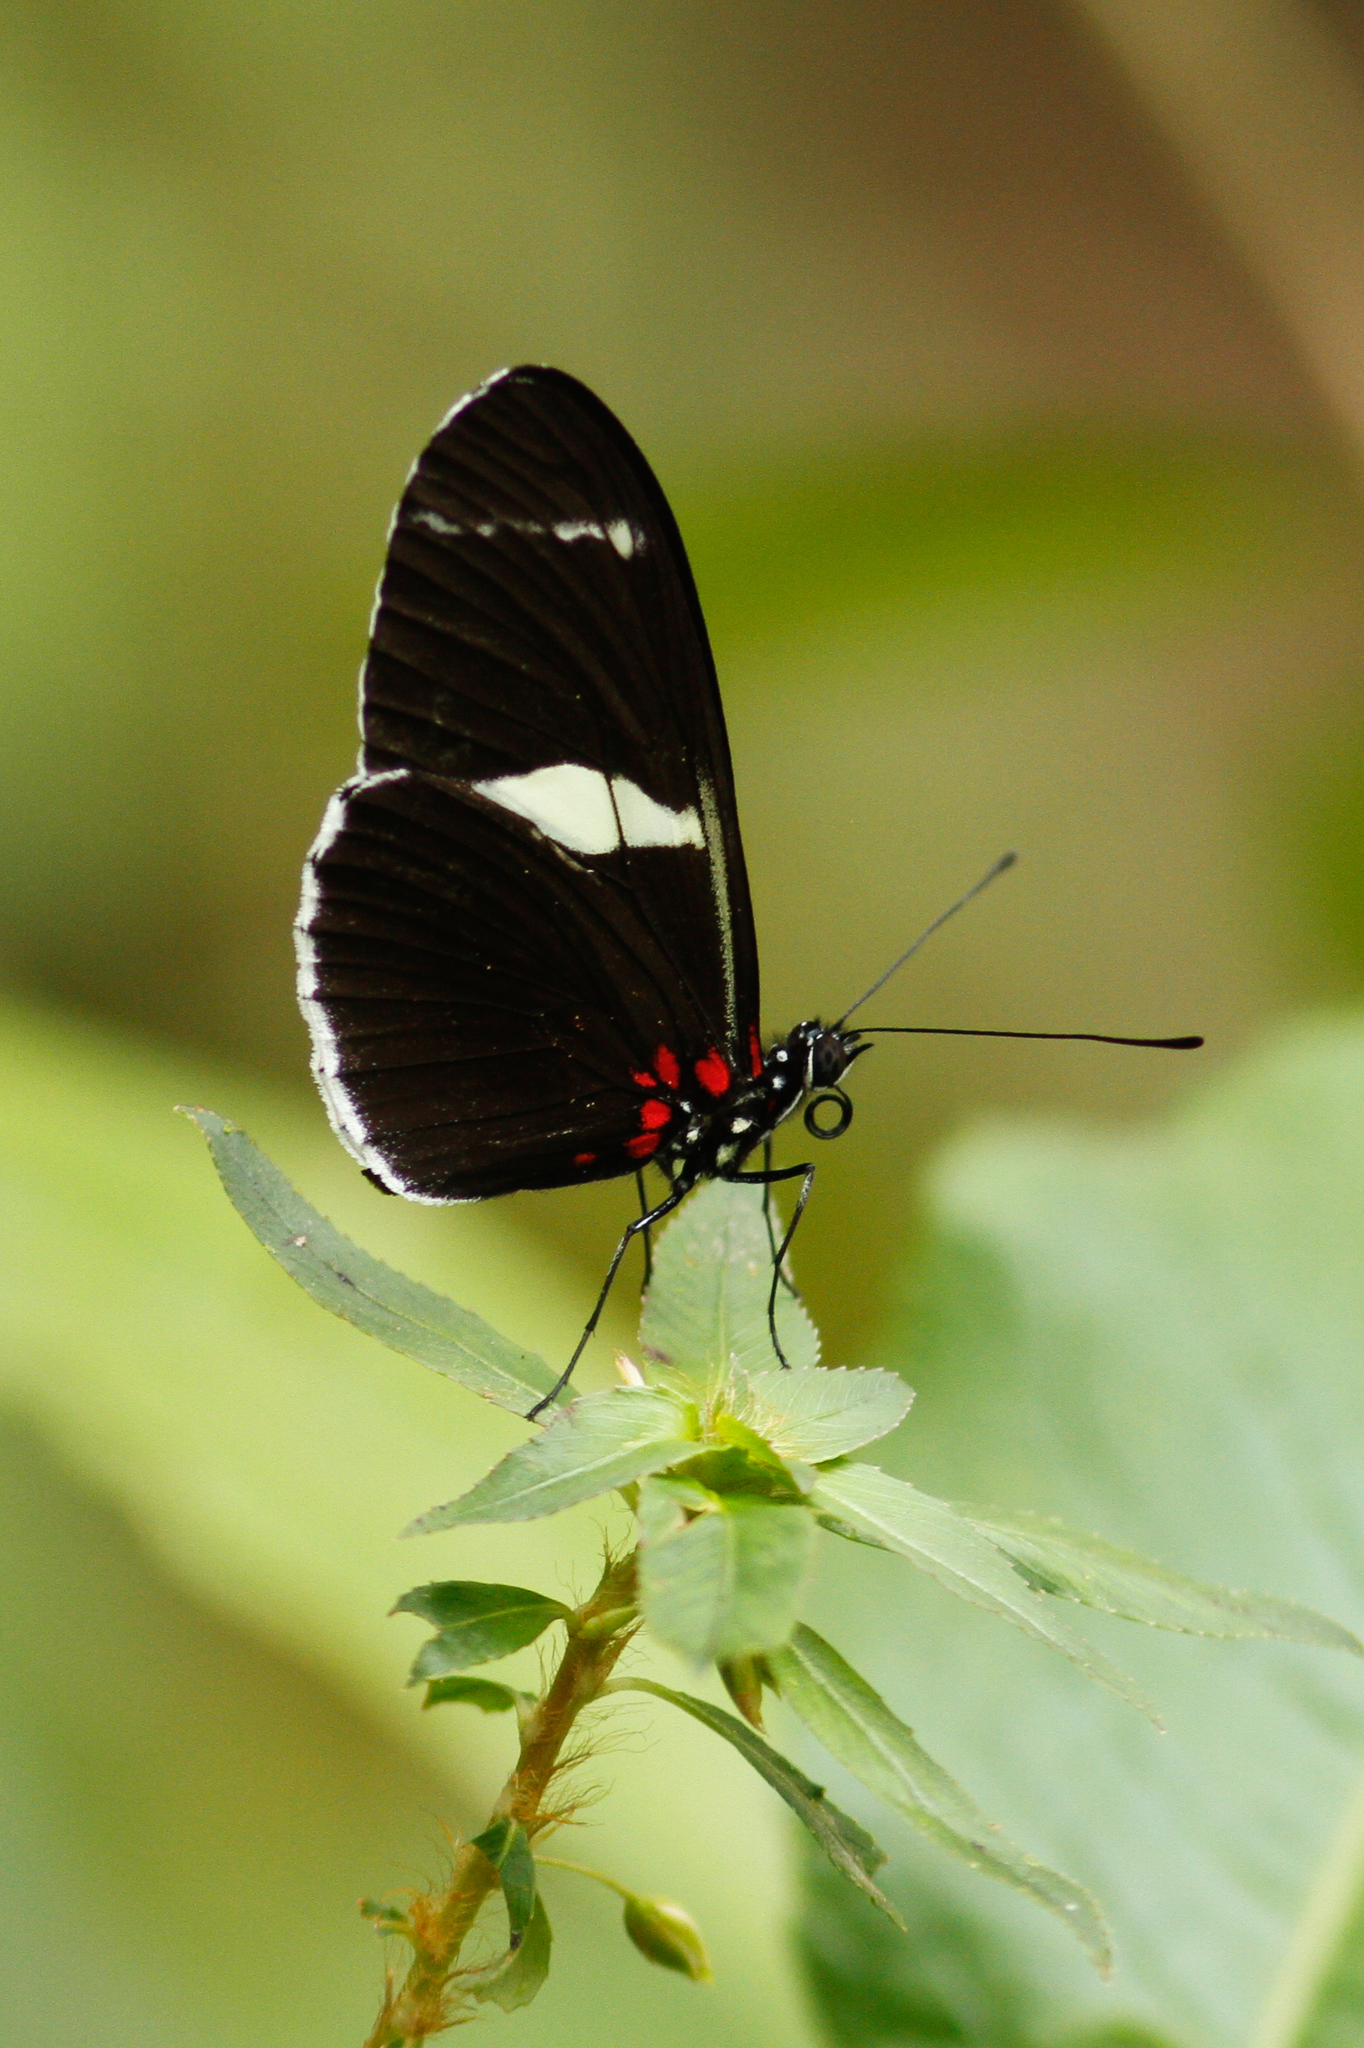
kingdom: Animalia
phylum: Arthropoda
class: Insecta
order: Lepidoptera
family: Nymphalidae
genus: Heliconius
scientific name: Heliconius sara
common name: Sara longwing
